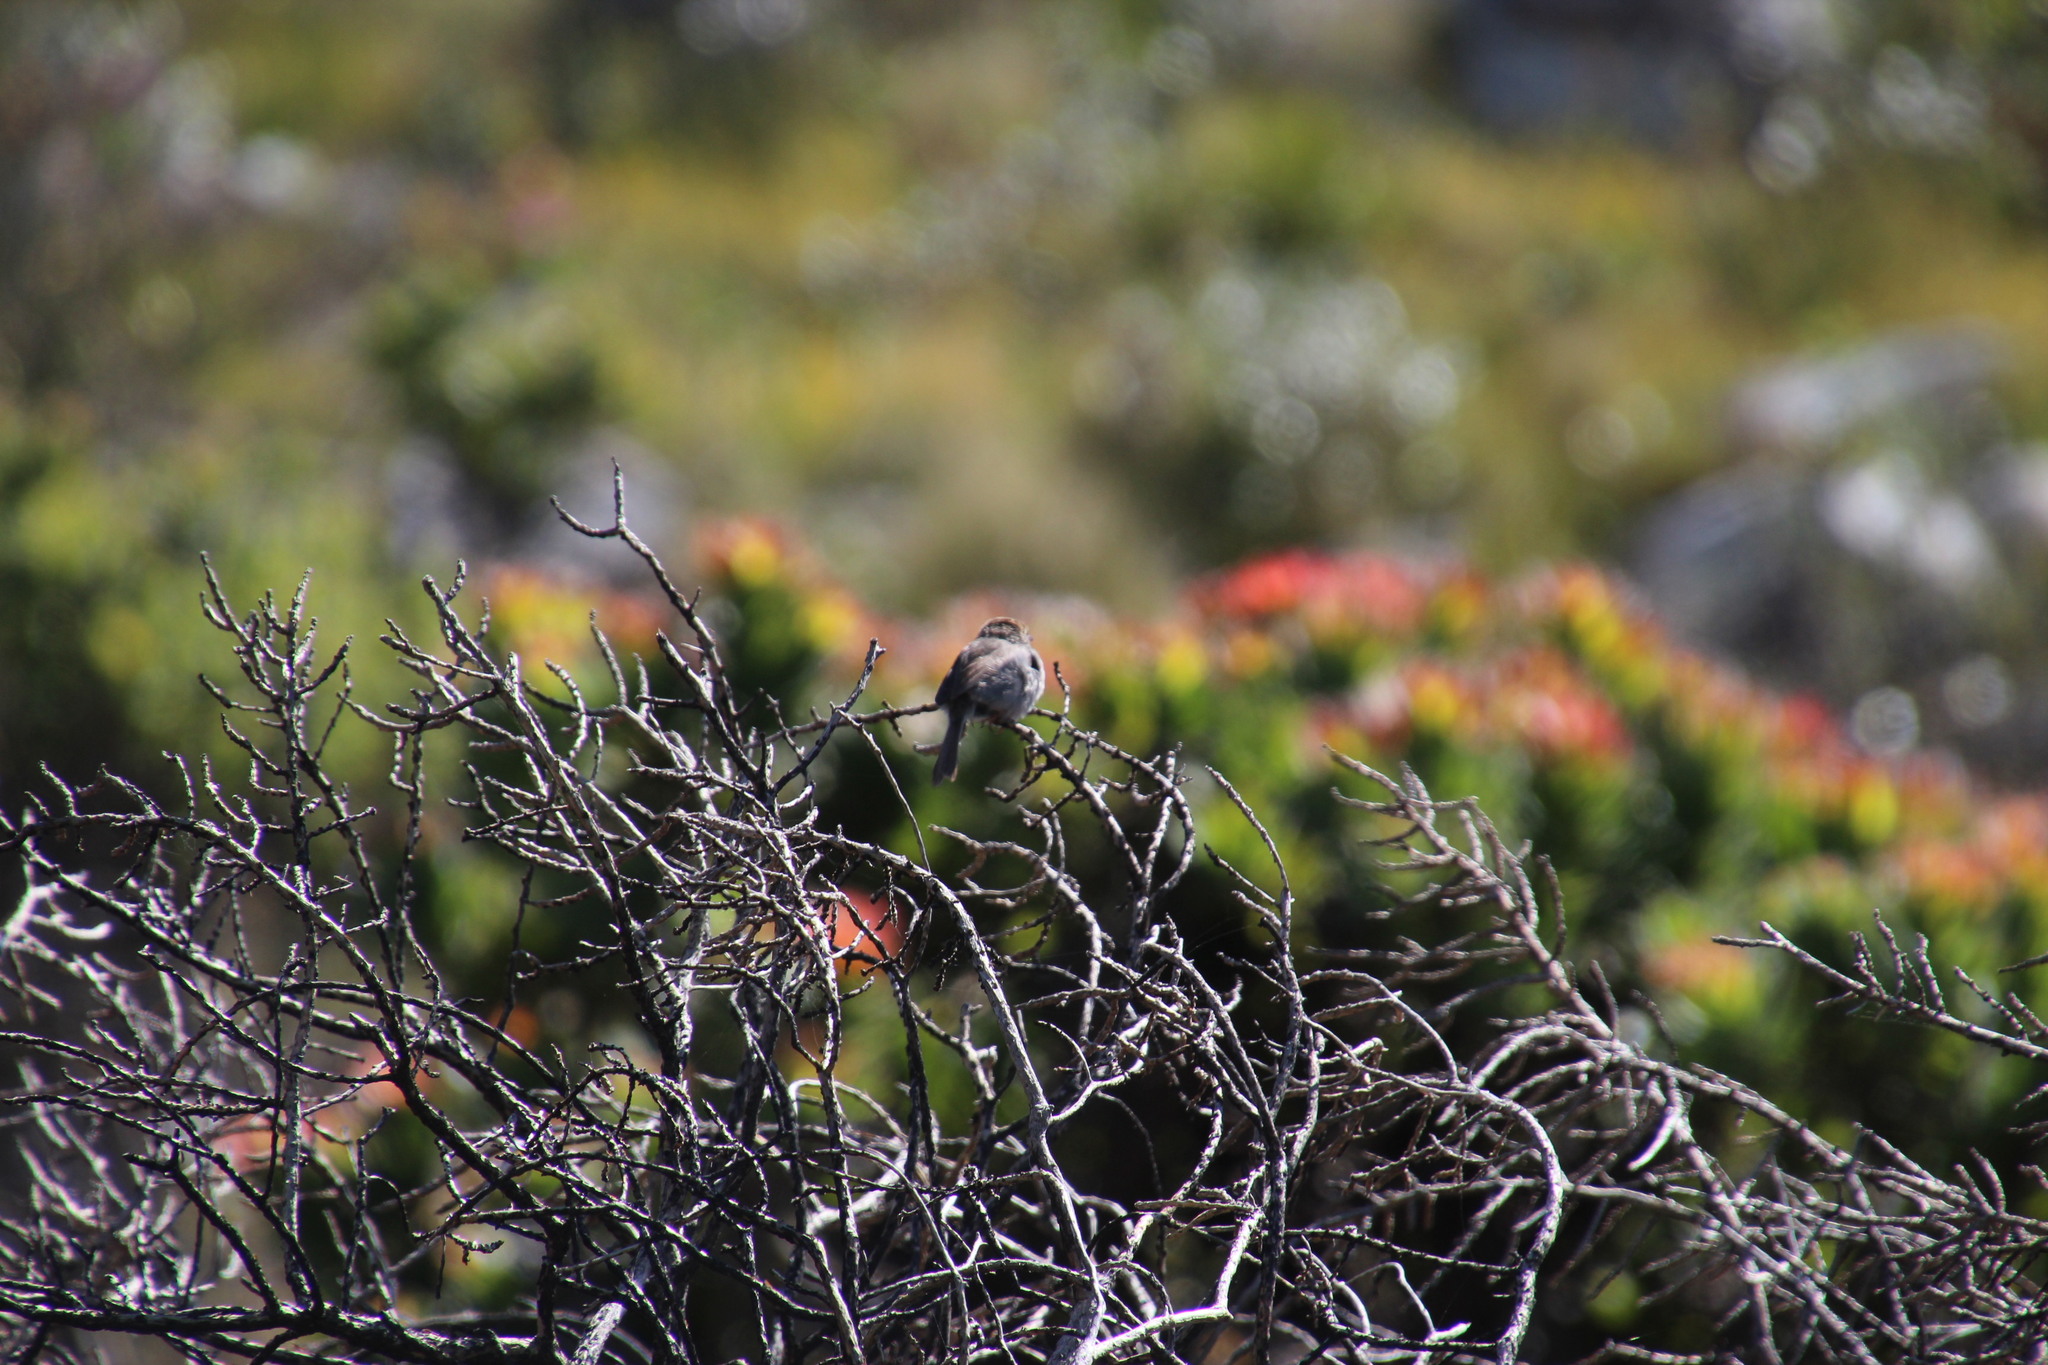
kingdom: Animalia
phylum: Chordata
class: Aves
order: Passeriformes
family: Cisticolidae
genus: Cisticola
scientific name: Cisticola fulvicapilla
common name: Neddicky
